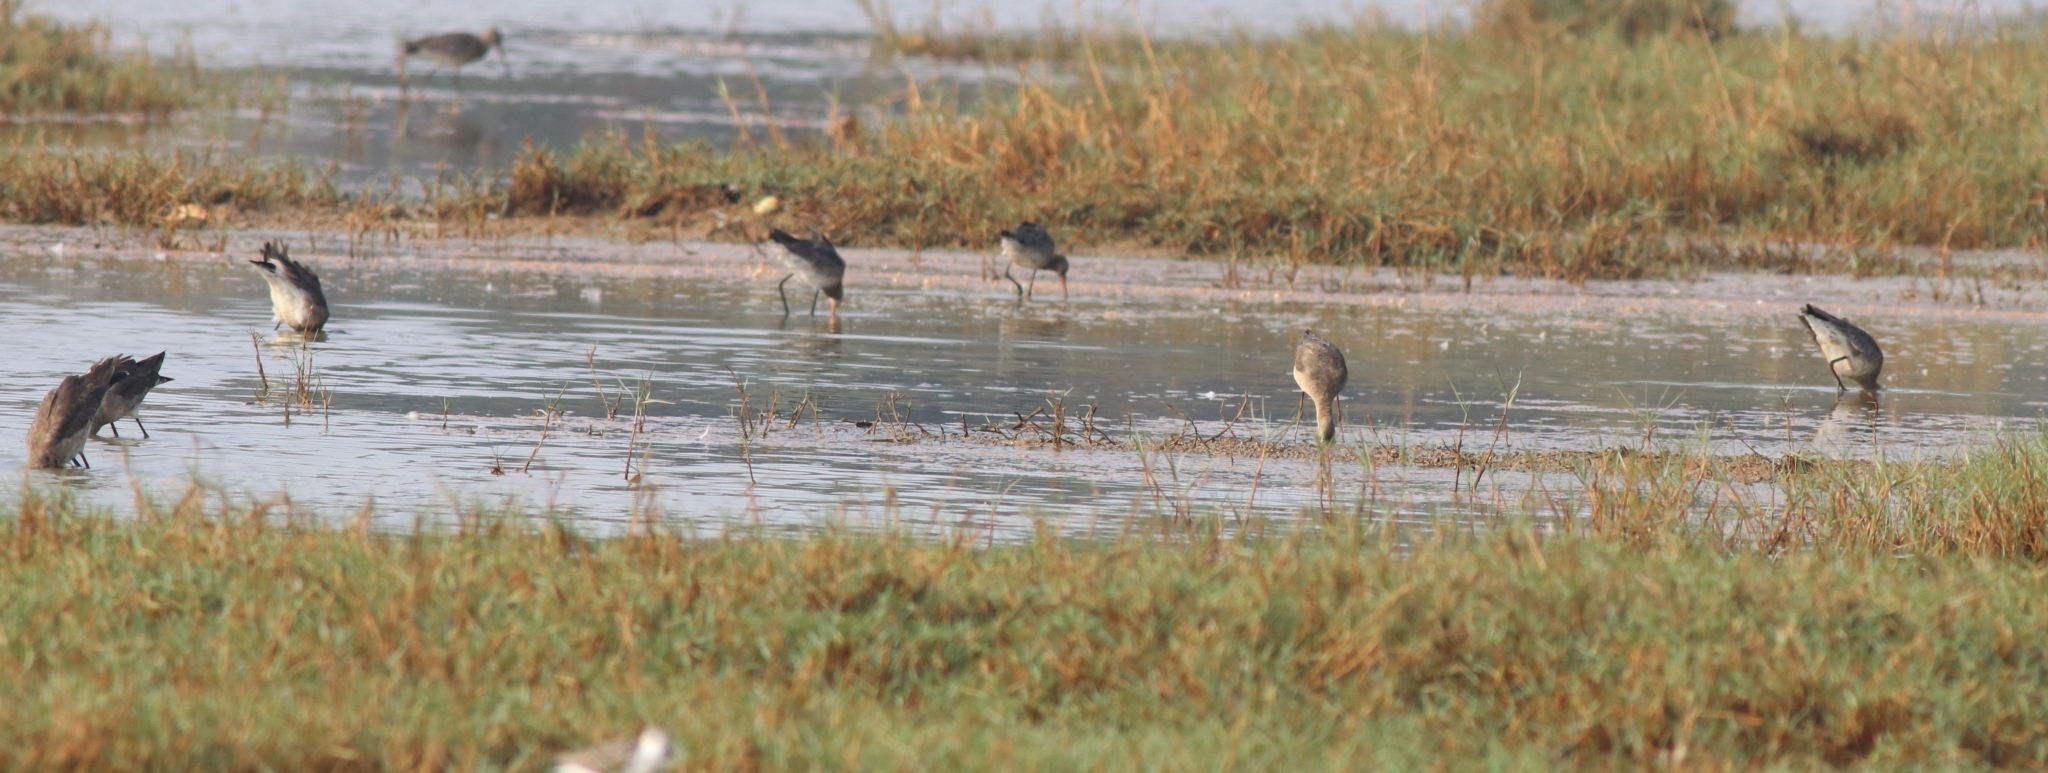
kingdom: Animalia
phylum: Chordata
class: Aves
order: Charadriiformes
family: Scolopacidae
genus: Limosa
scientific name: Limosa limosa
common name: Black-tailed godwit
